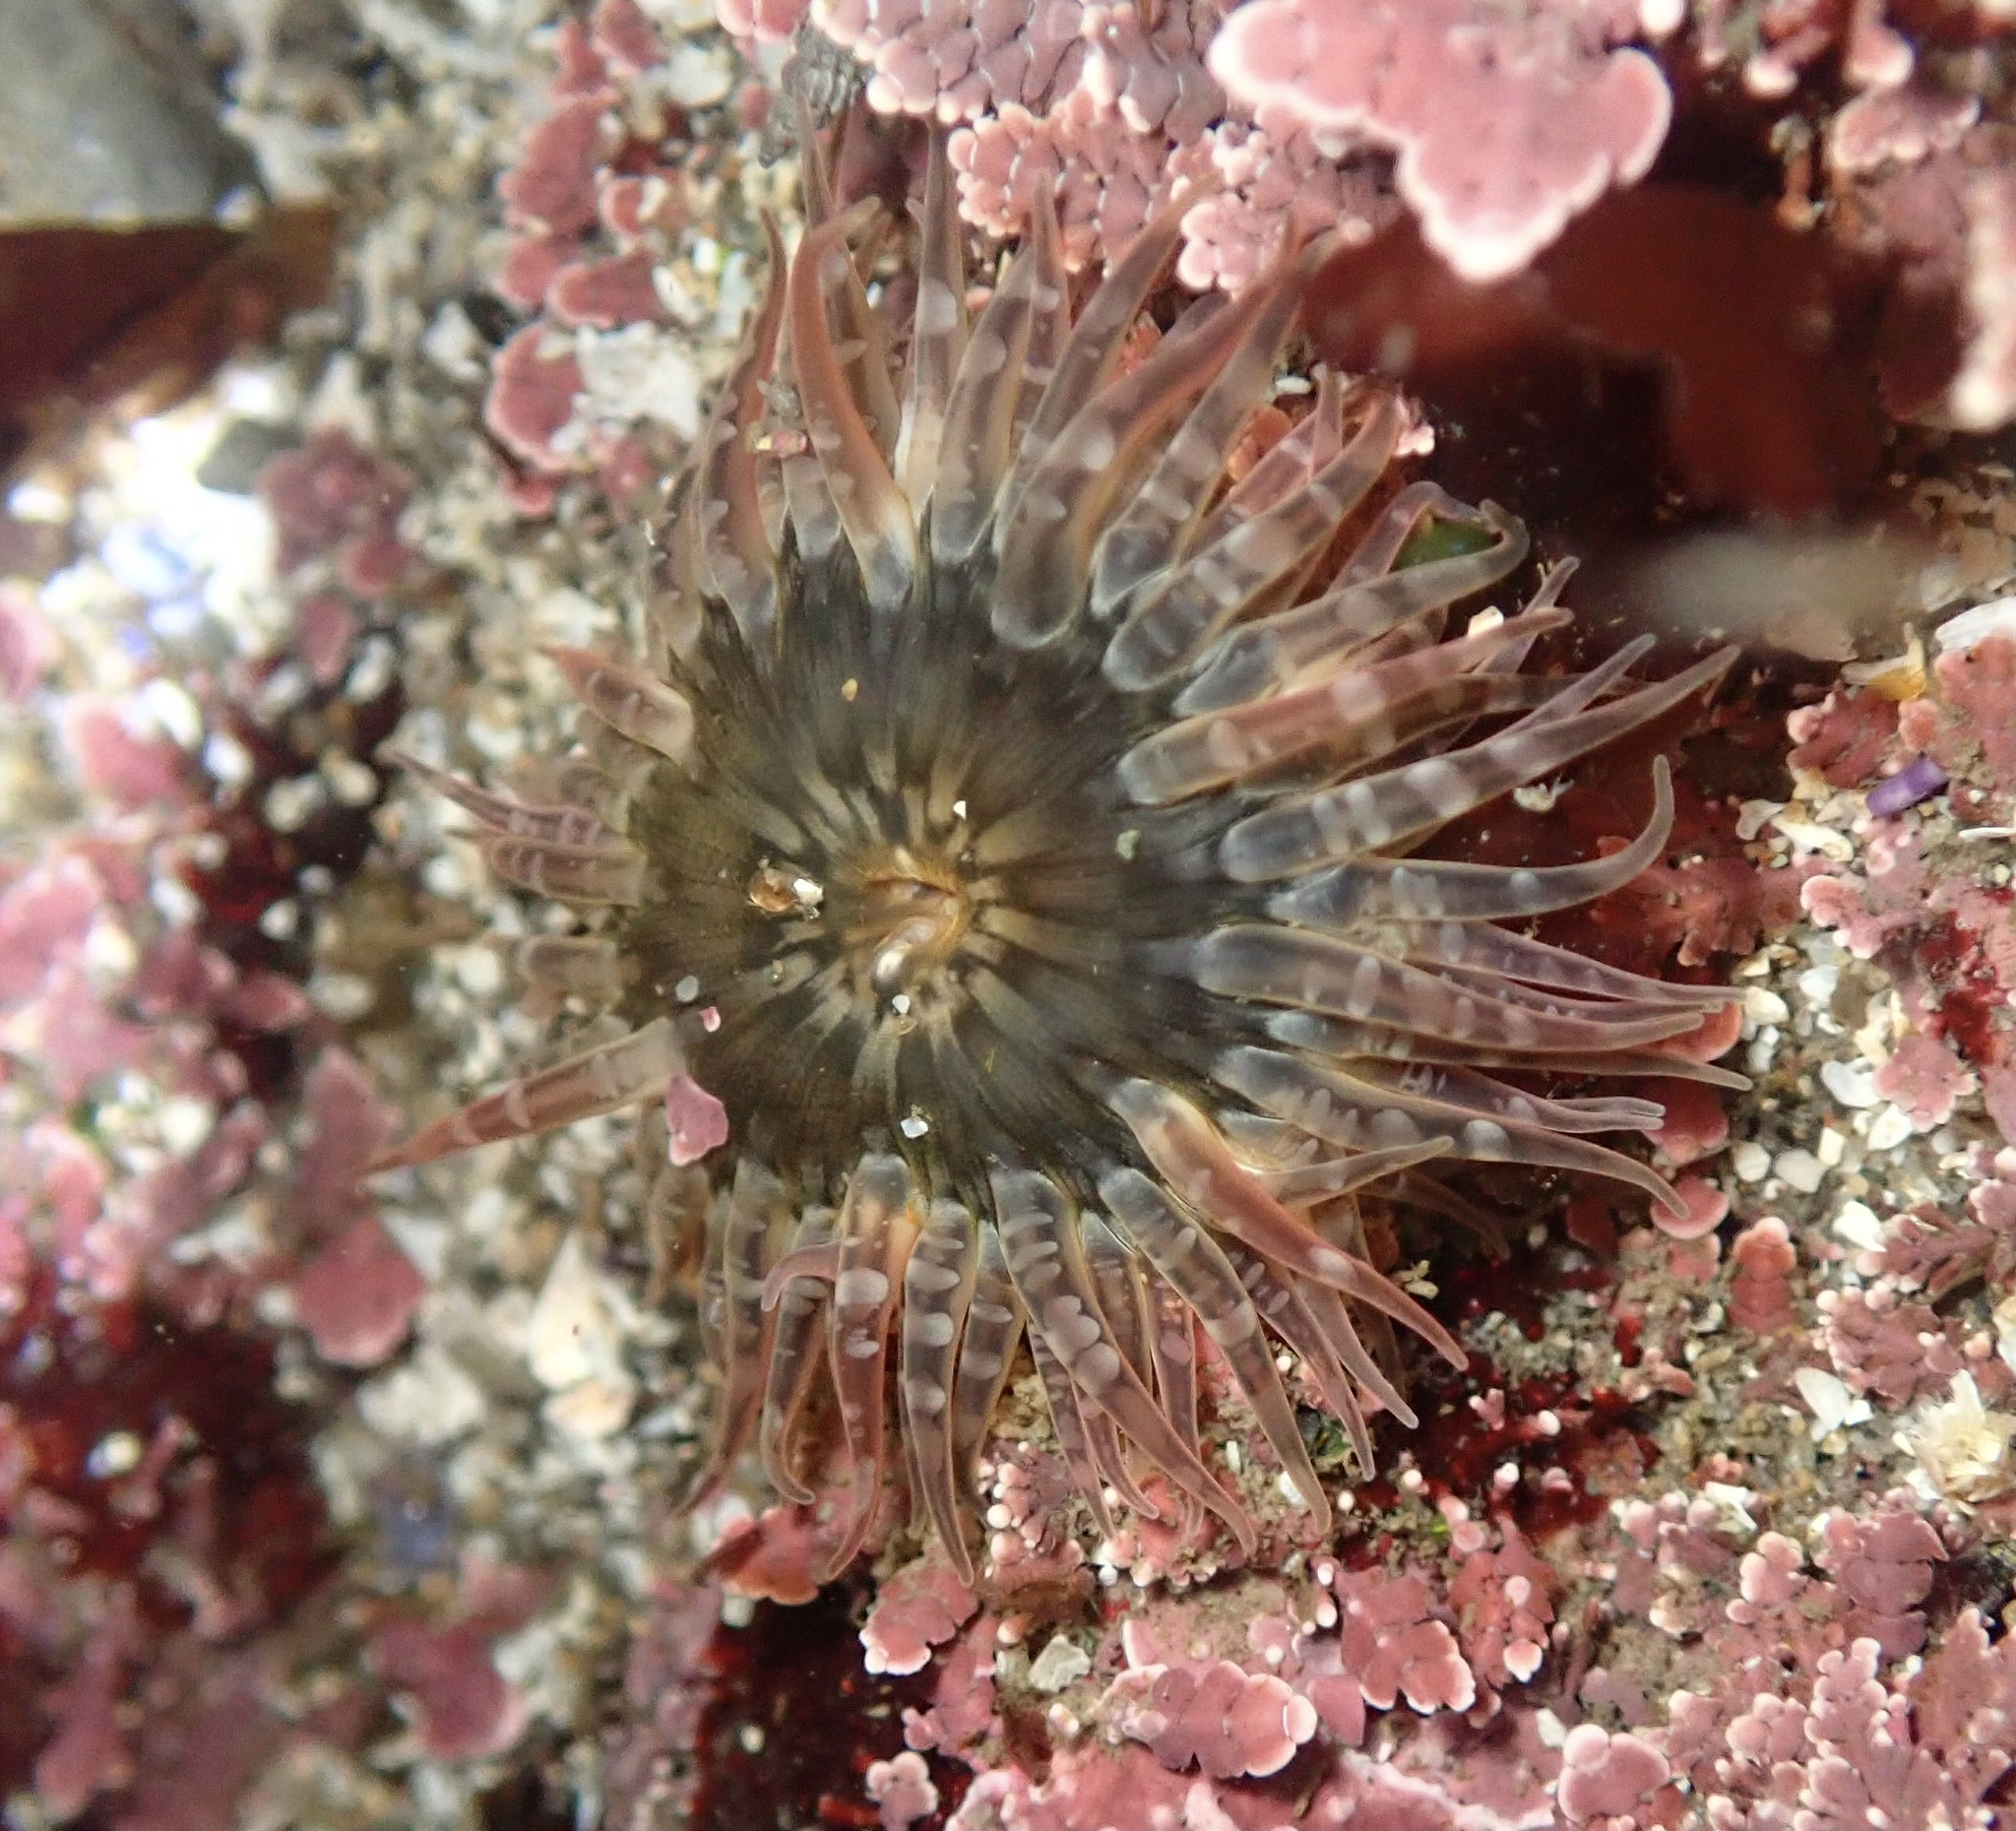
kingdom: Animalia
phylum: Cnidaria
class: Anthozoa
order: Actiniaria
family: Actiniidae
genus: Anthopleura
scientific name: Anthopleura artemisia
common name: Buried sea anemone
